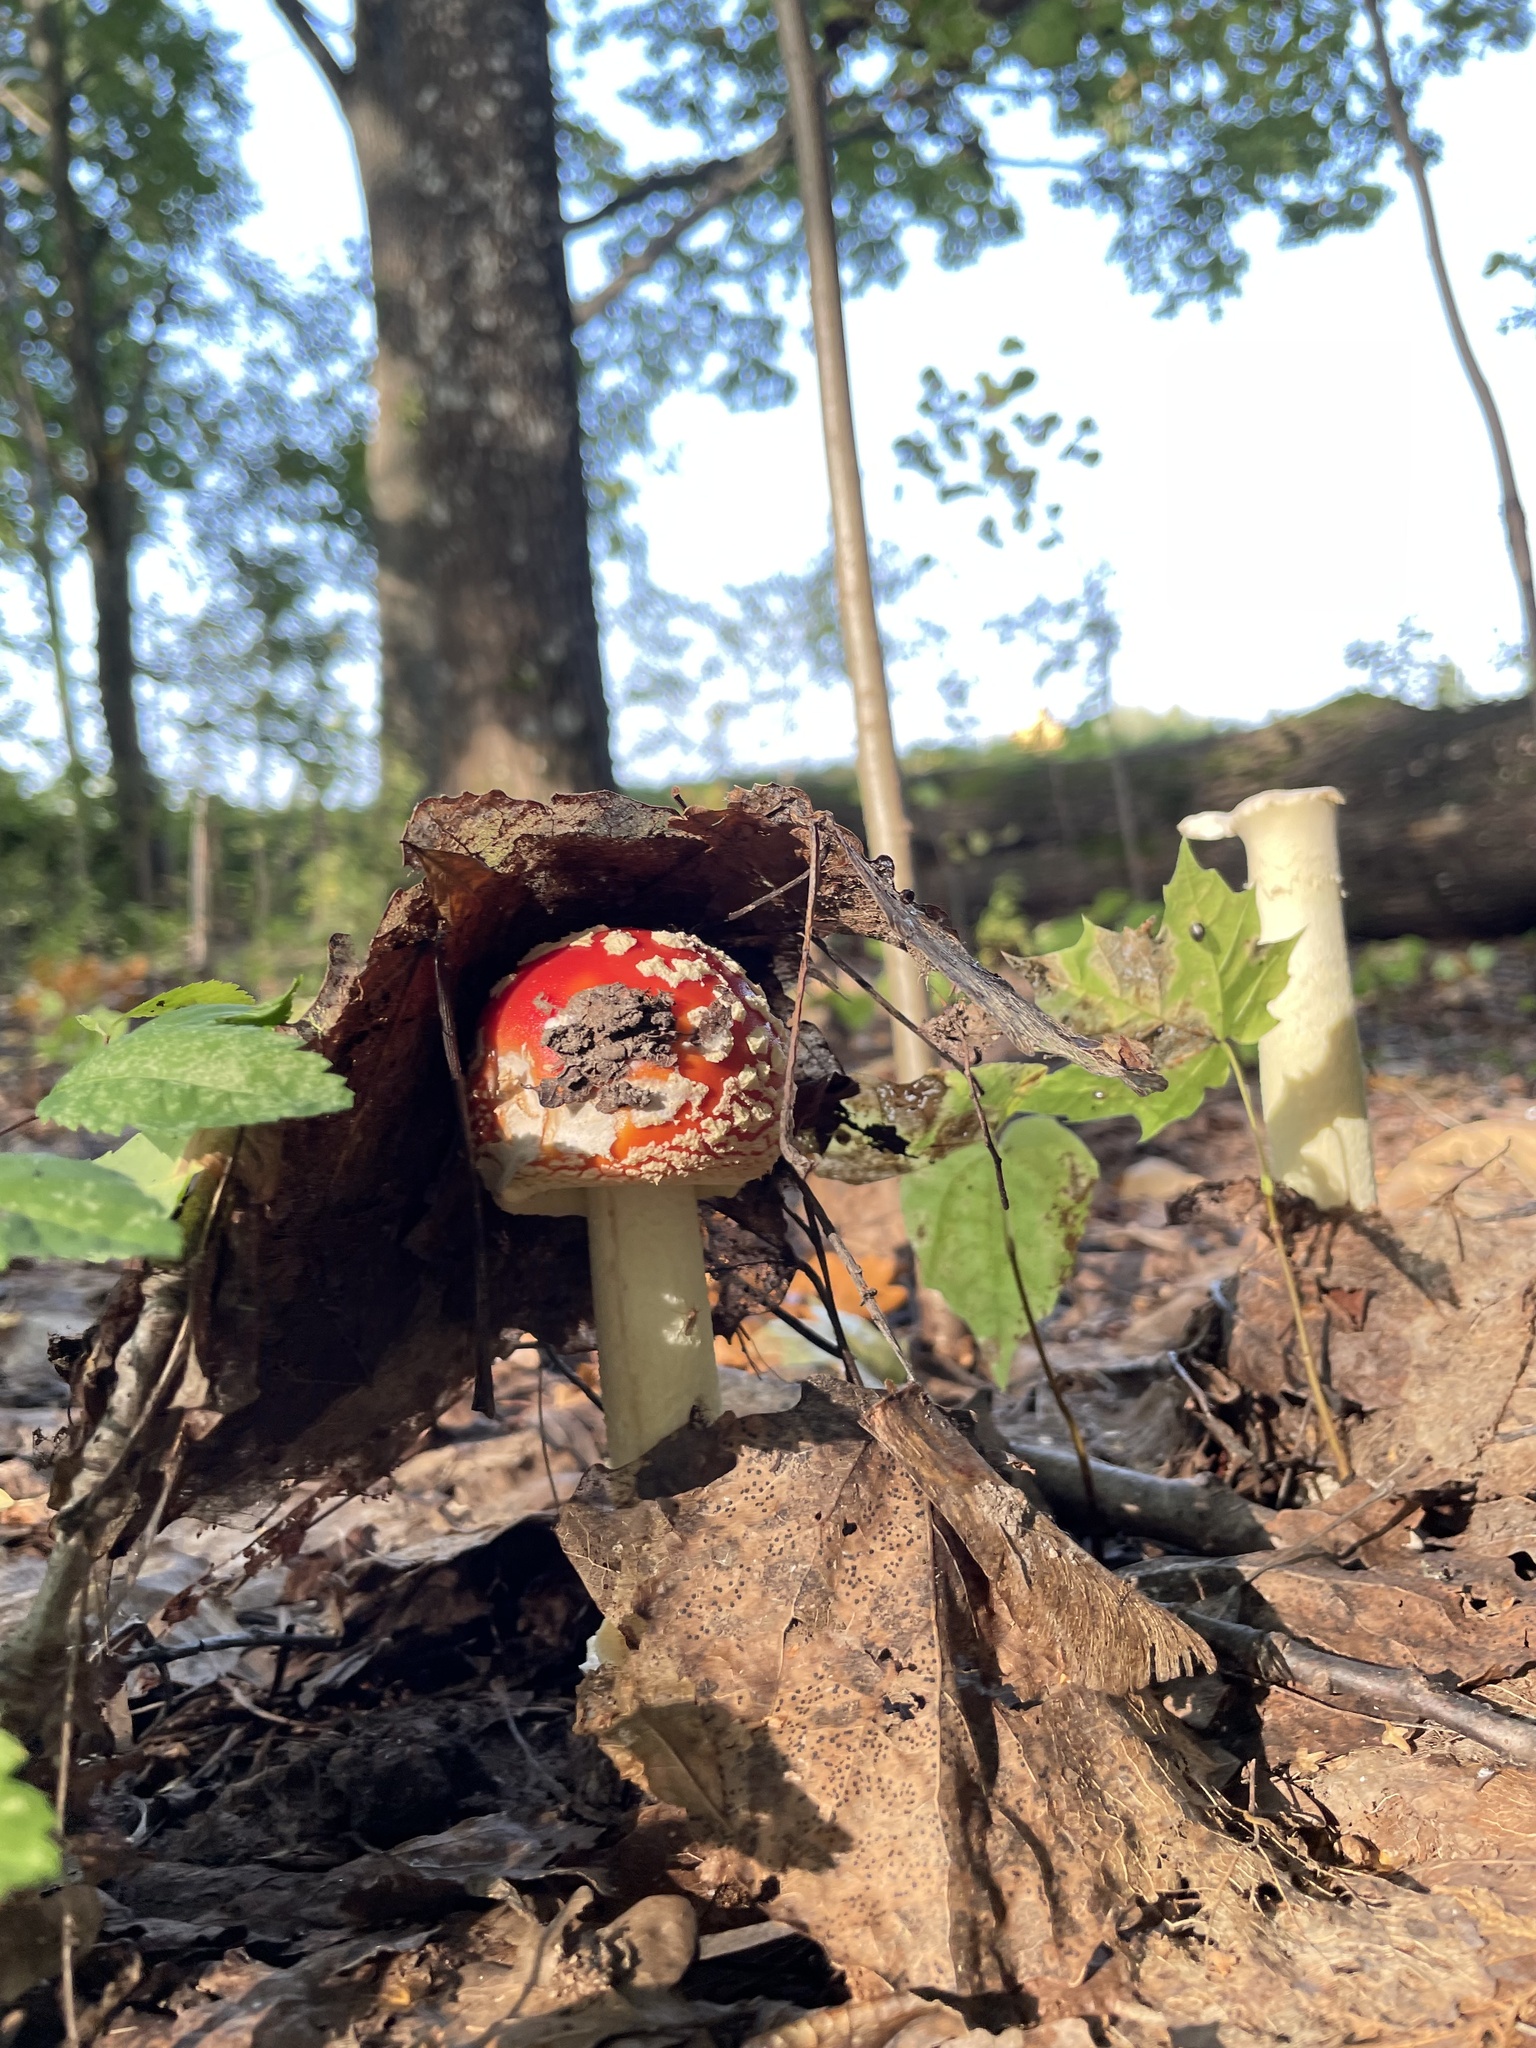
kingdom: Fungi
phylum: Basidiomycota
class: Agaricomycetes
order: Agaricales
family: Amanitaceae
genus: Amanita
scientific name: Amanita muscaria
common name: Fly agaric
